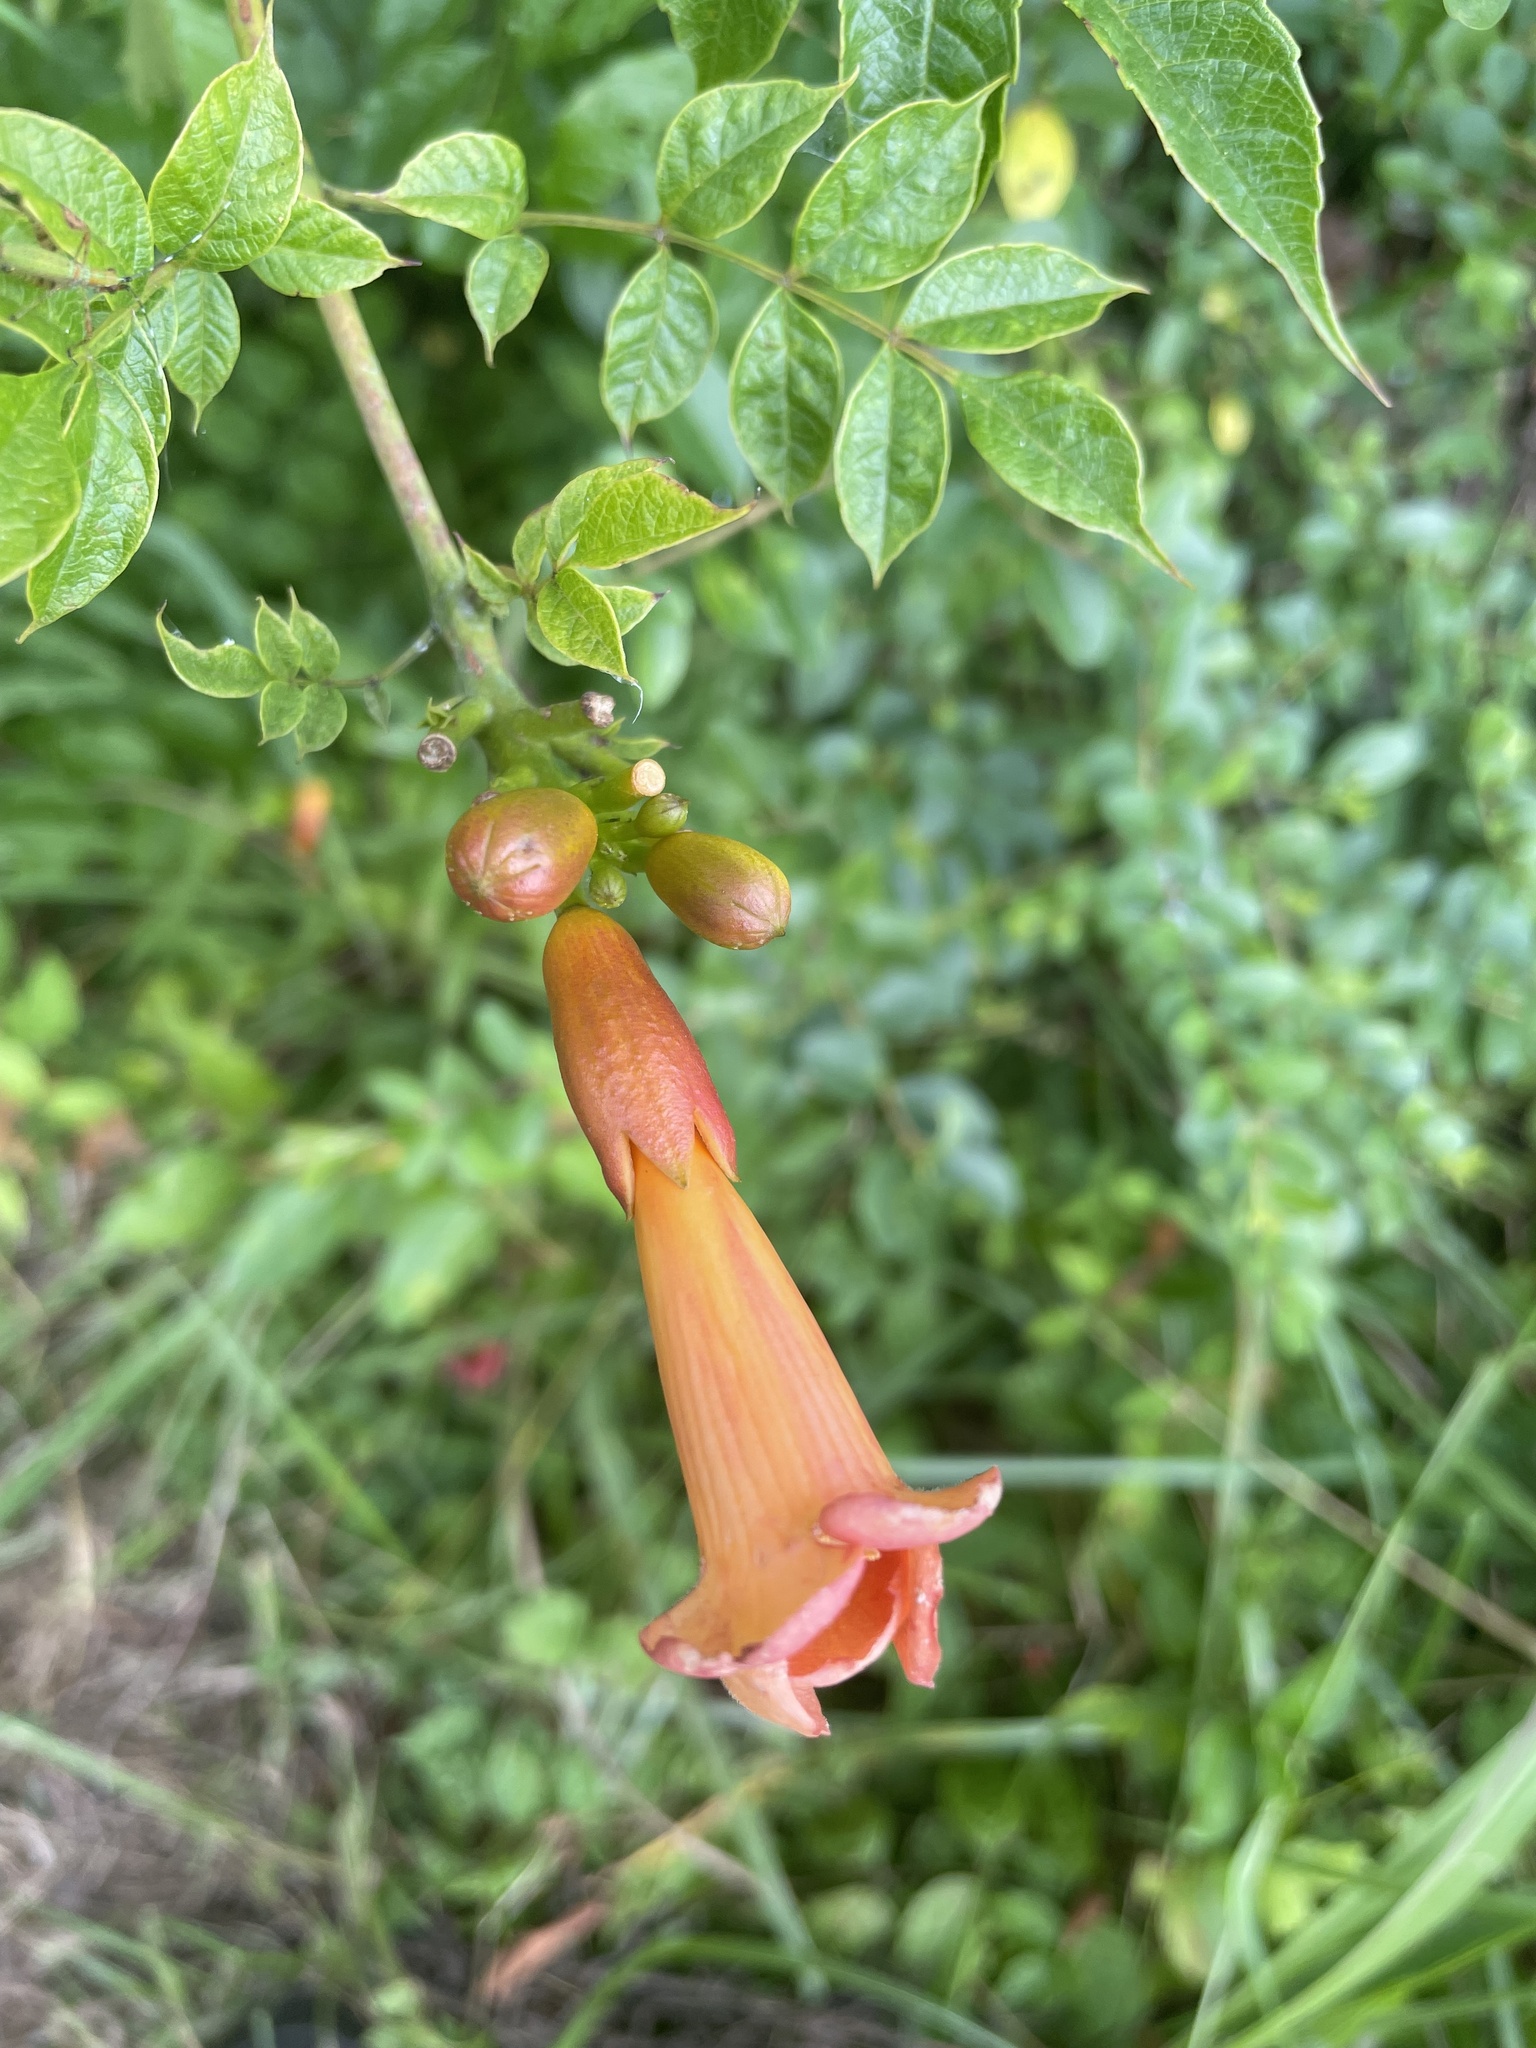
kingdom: Plantae
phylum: Tracheophyta
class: Magnoliopsida
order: Lamiales
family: Bignoniaceae
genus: Campsis
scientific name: Campsis radicans
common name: Trumpet-creeper
